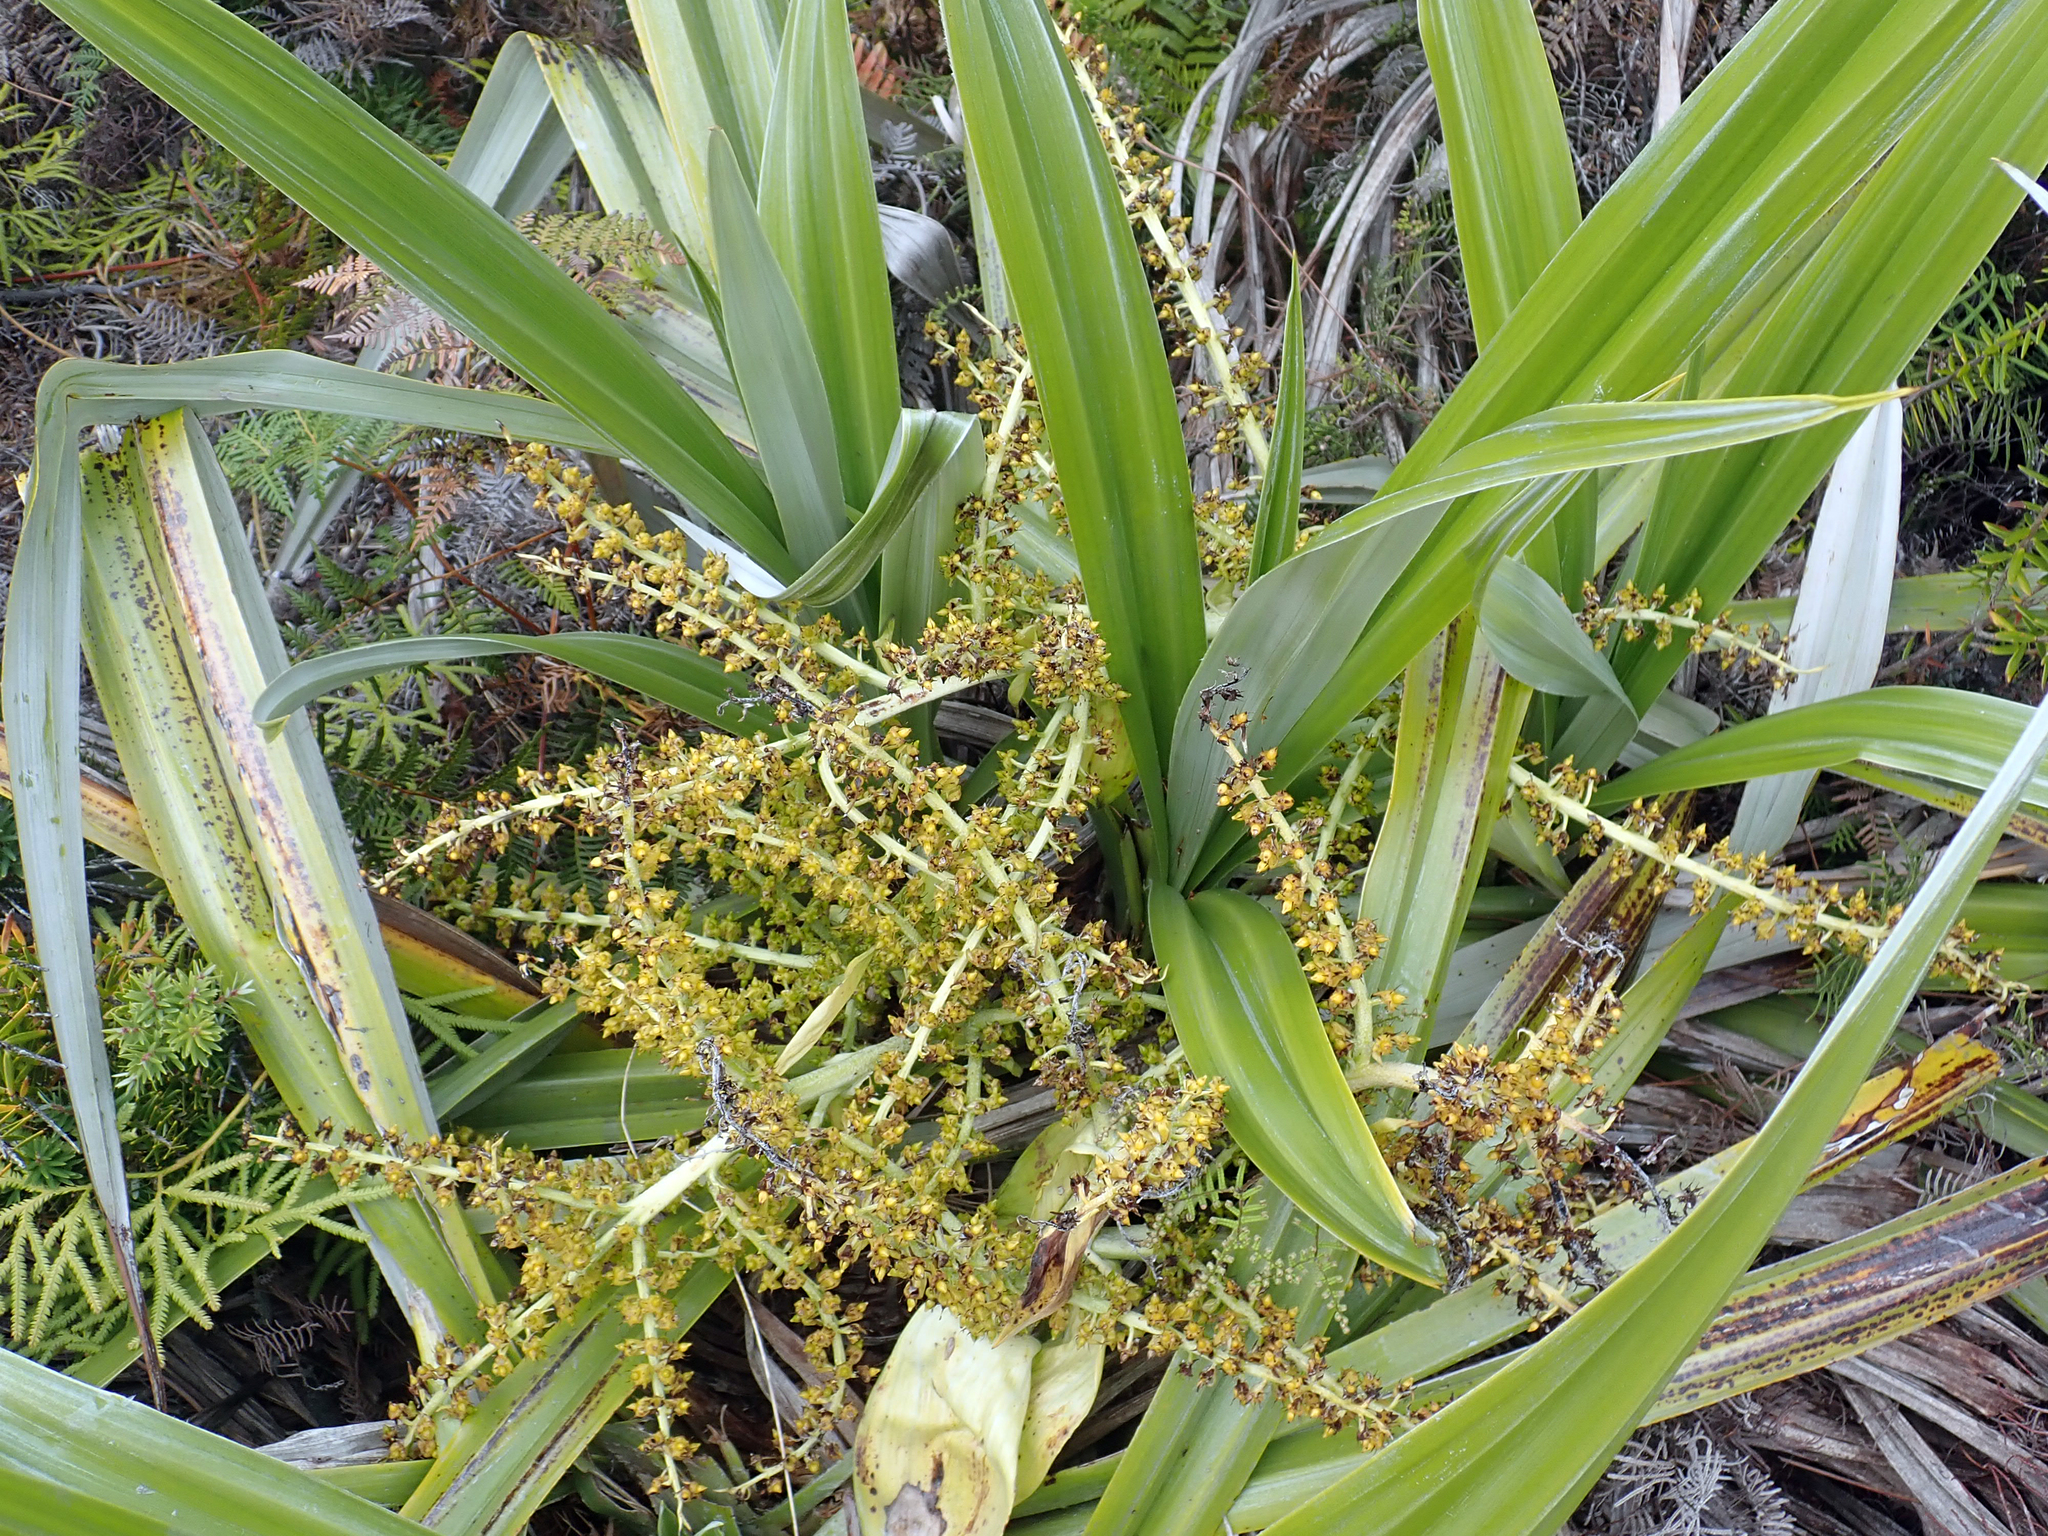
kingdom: Plantae
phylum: Tracheophyta
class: Liliopsida
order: Asparagales
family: Asteliaceae
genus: Astelia
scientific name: Astelia chathamica
